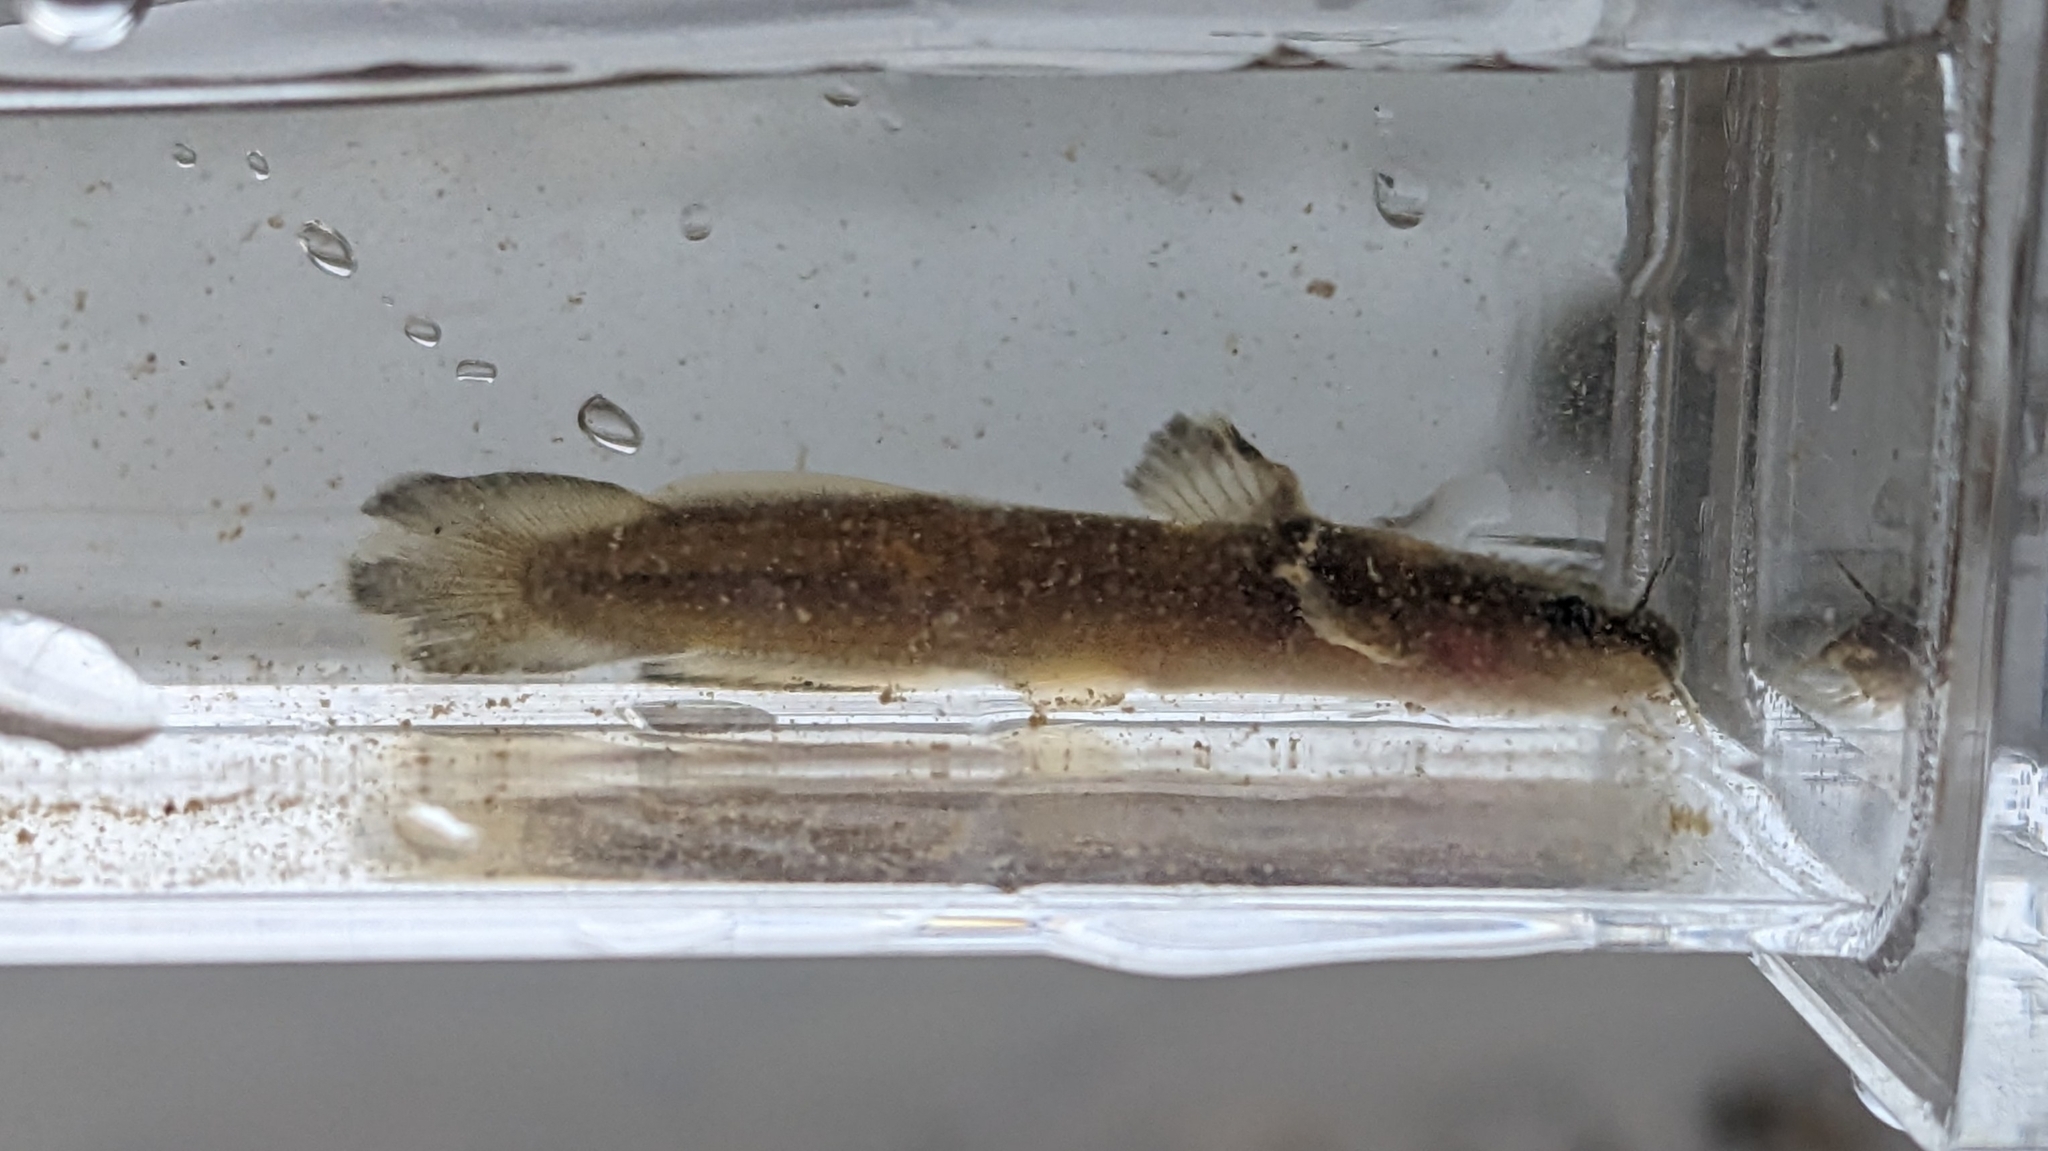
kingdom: Animalia
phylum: Chordata
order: Siluriformes
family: Ictaluridae
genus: Noturus
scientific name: Noturus exilis
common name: Slender madtom
